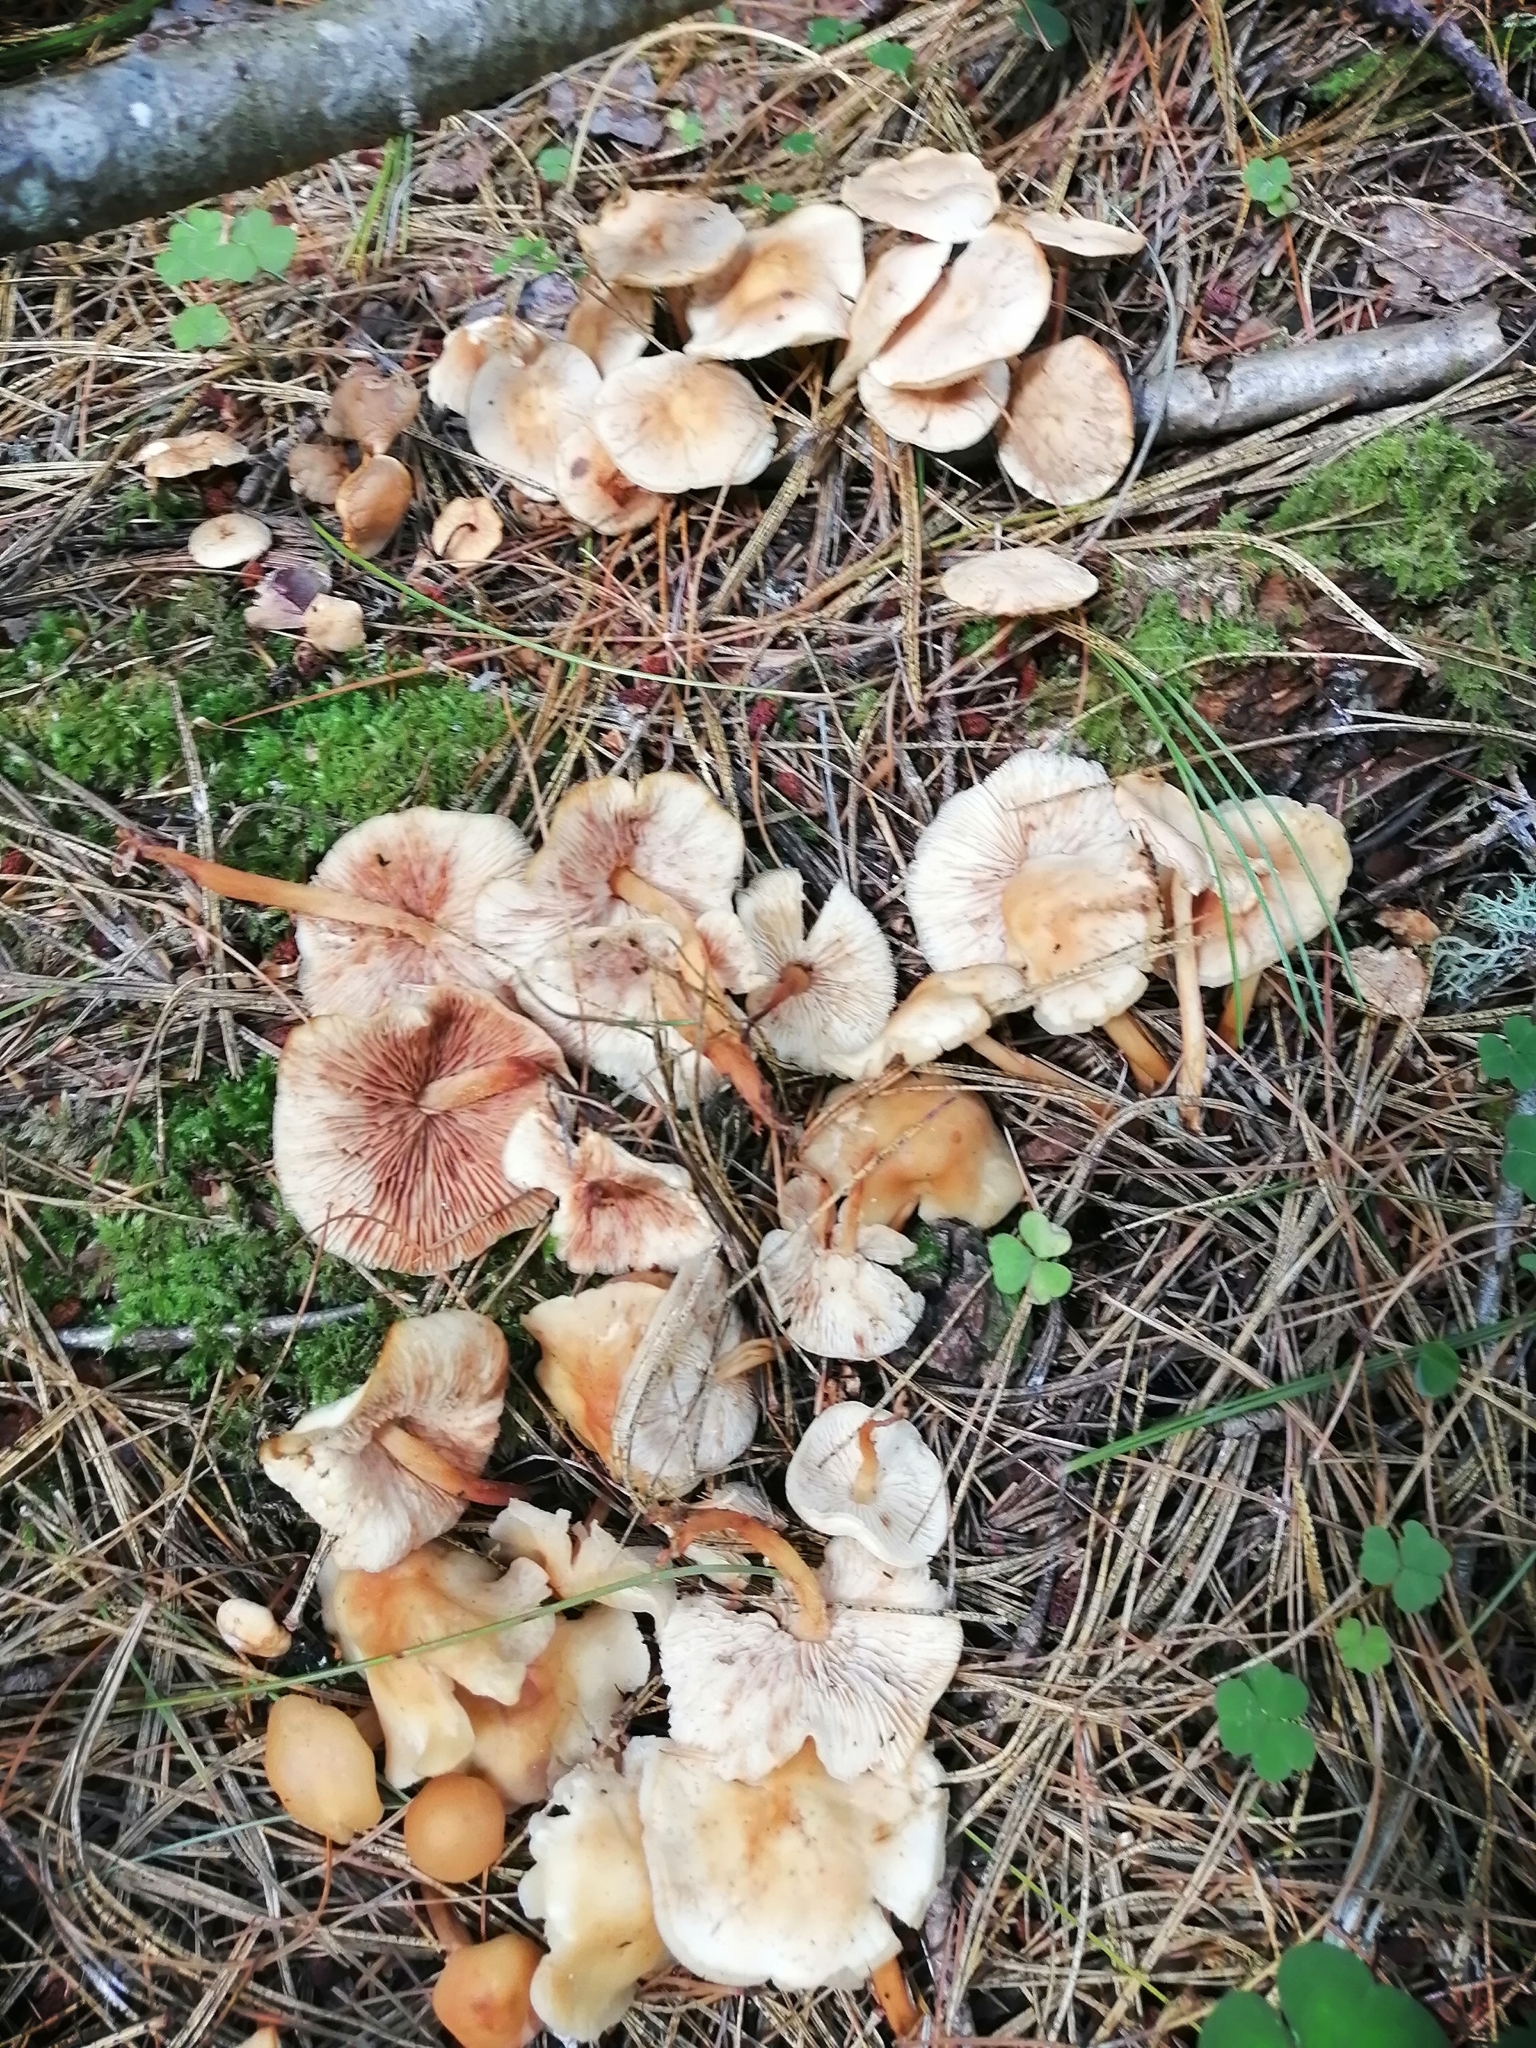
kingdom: Fungi
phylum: Basidiomycota
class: Agaricomycetes
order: Agaricales
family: Omphalotaceae
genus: Gymnopus
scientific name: Gymnopus dryophilus
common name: Penny top
